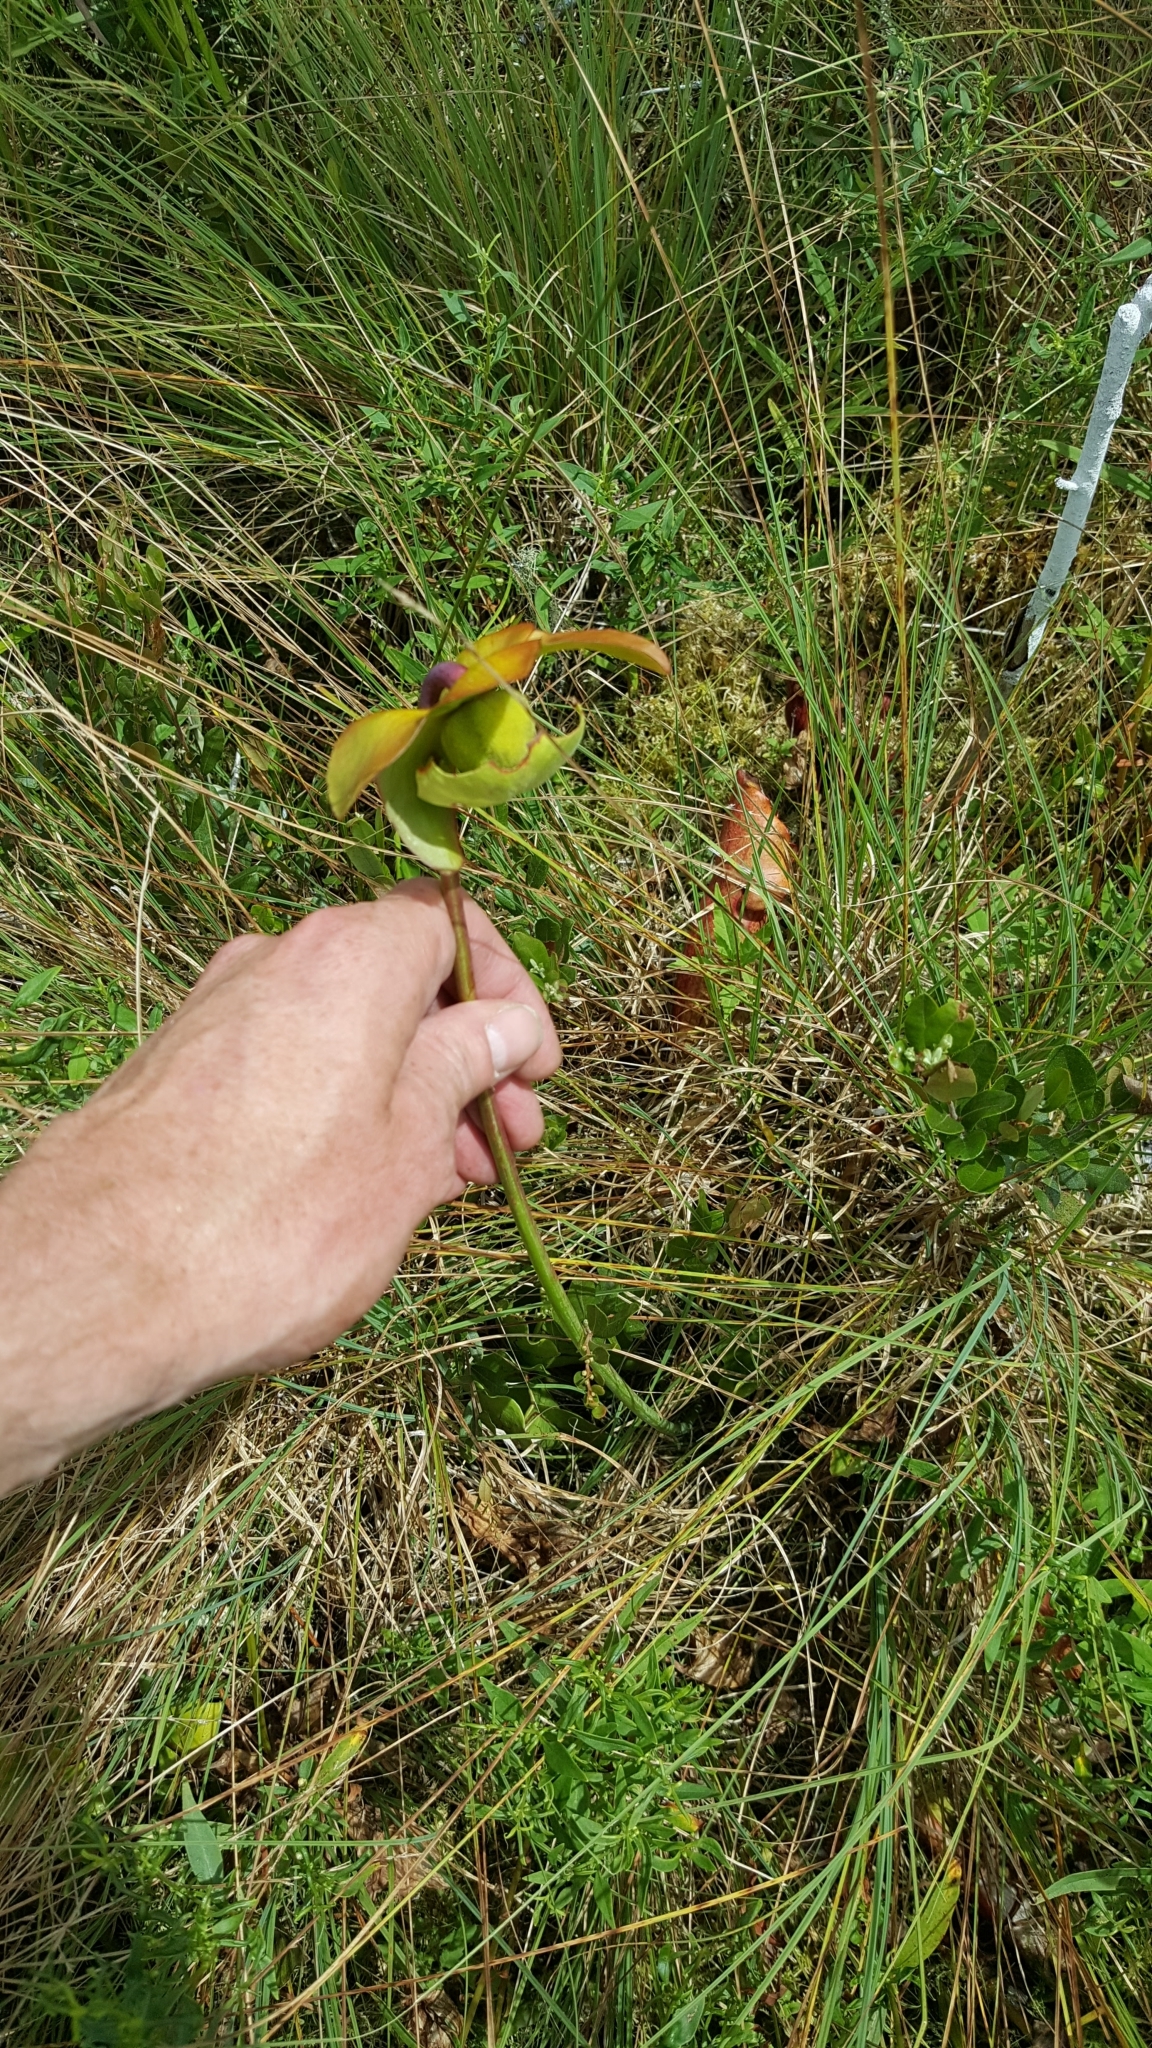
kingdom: Plantae
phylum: Tracheophyta
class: Magnoliopsida
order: Ericales
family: Sarraceniaceae
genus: Sarracenia
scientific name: Sarracenia purpurea
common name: Pitcherplant
